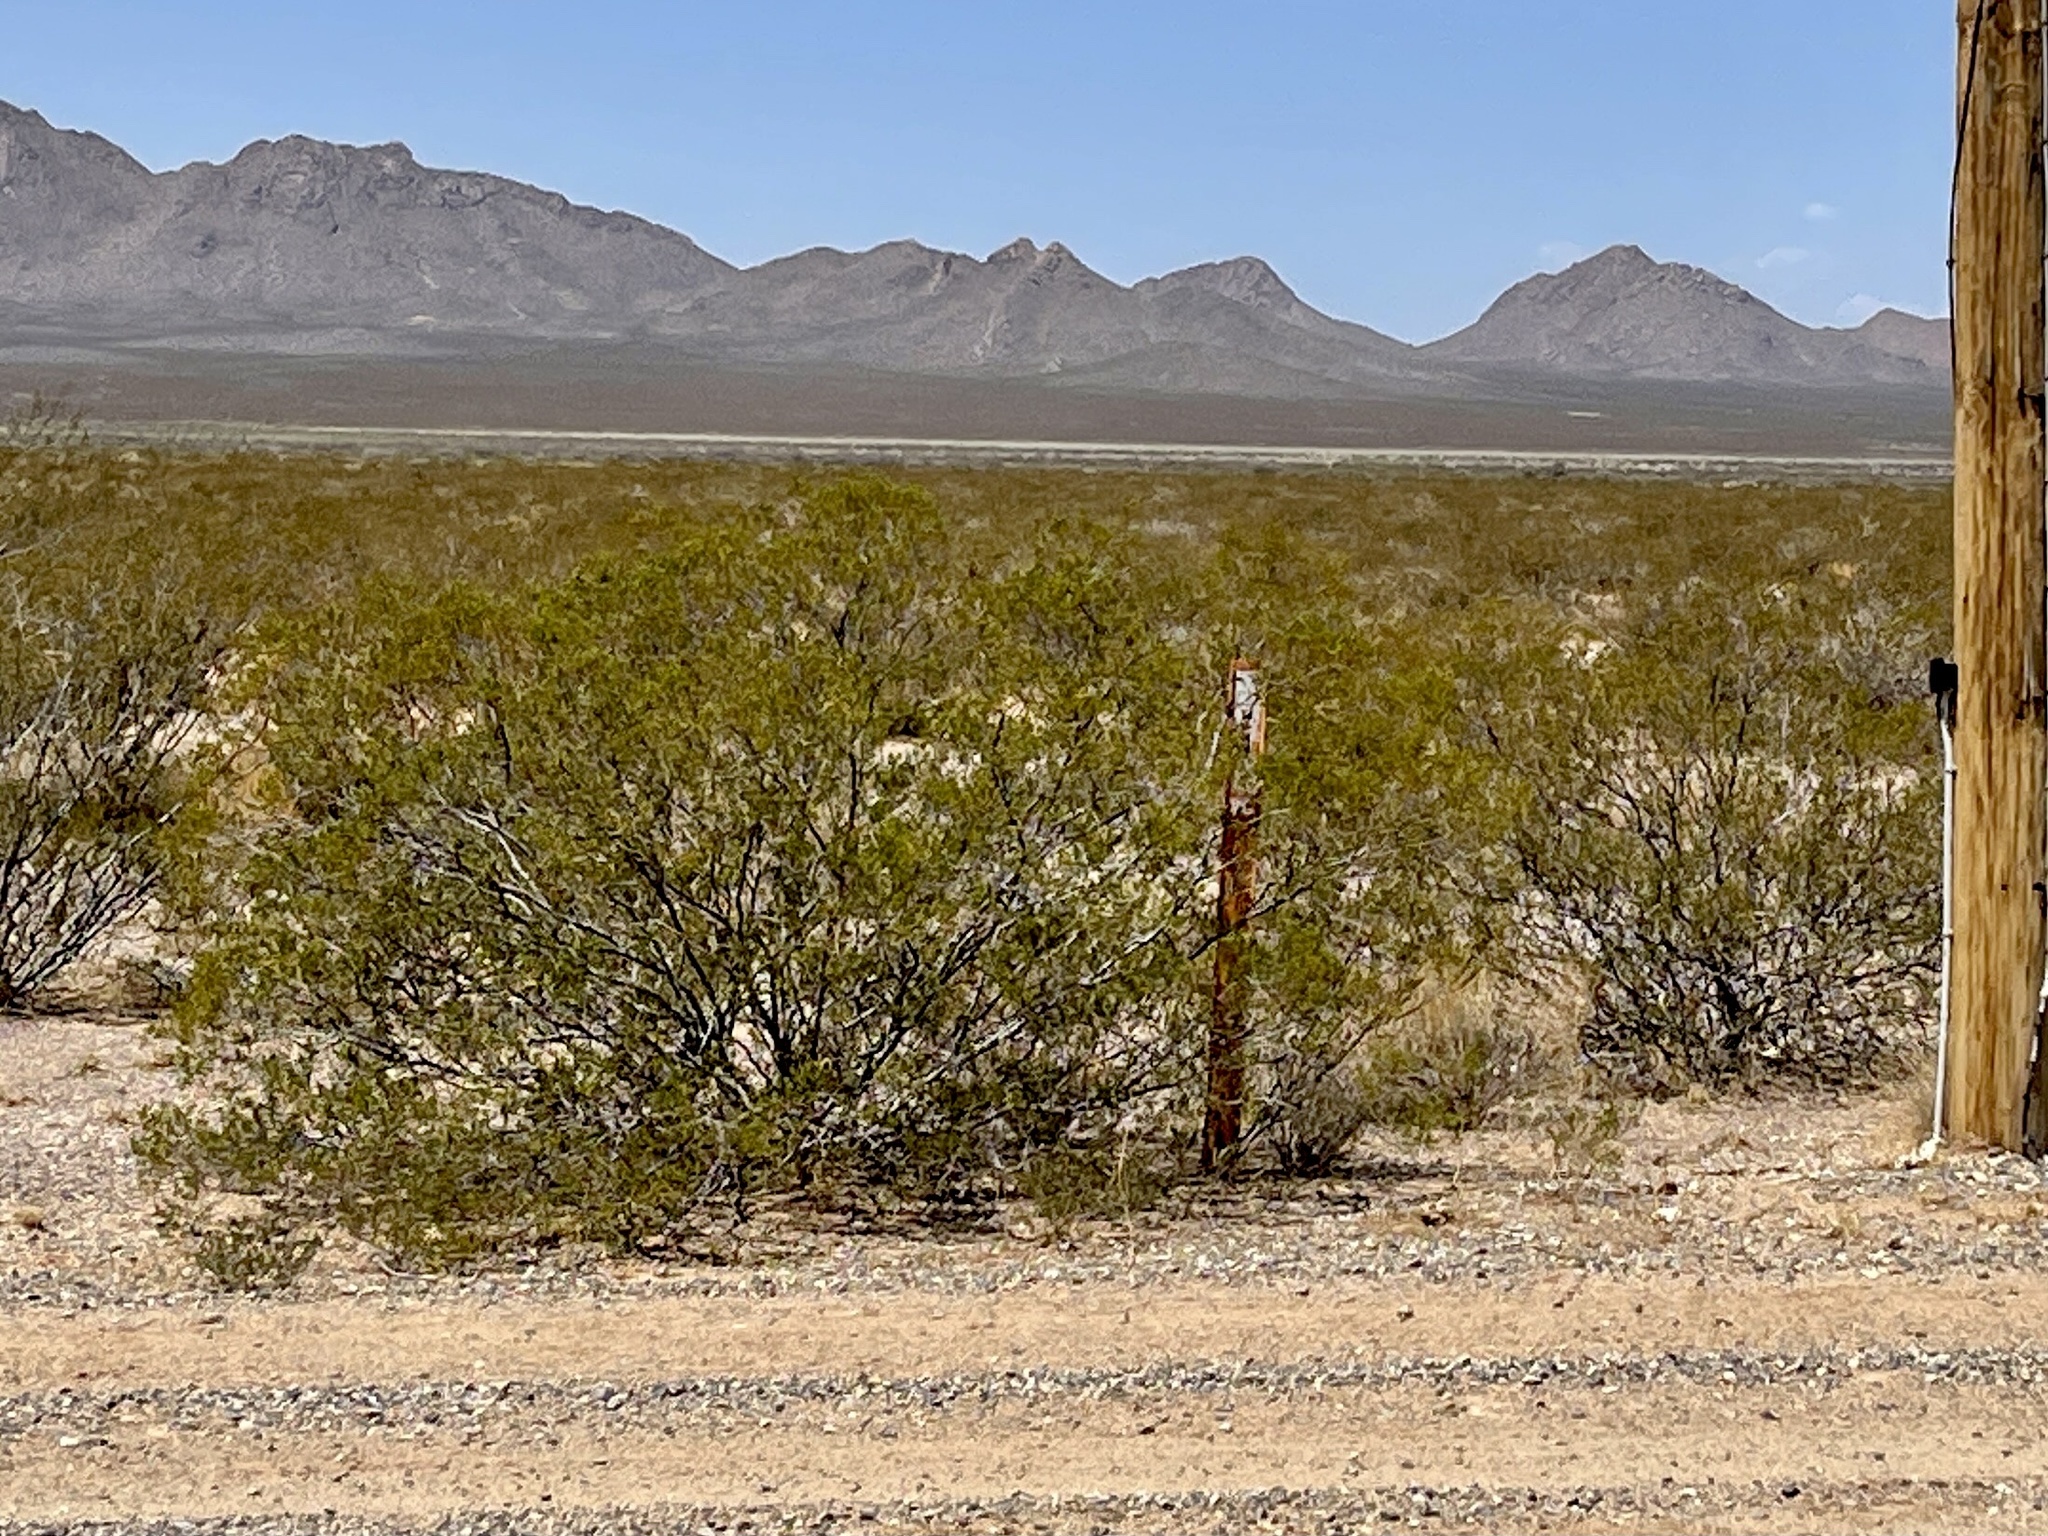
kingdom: Plantae
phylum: Tracheophyta
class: Magnoliopsida
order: Zygophyllales
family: Zygophyllaceae
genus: Larrea
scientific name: Larrea tridentata
